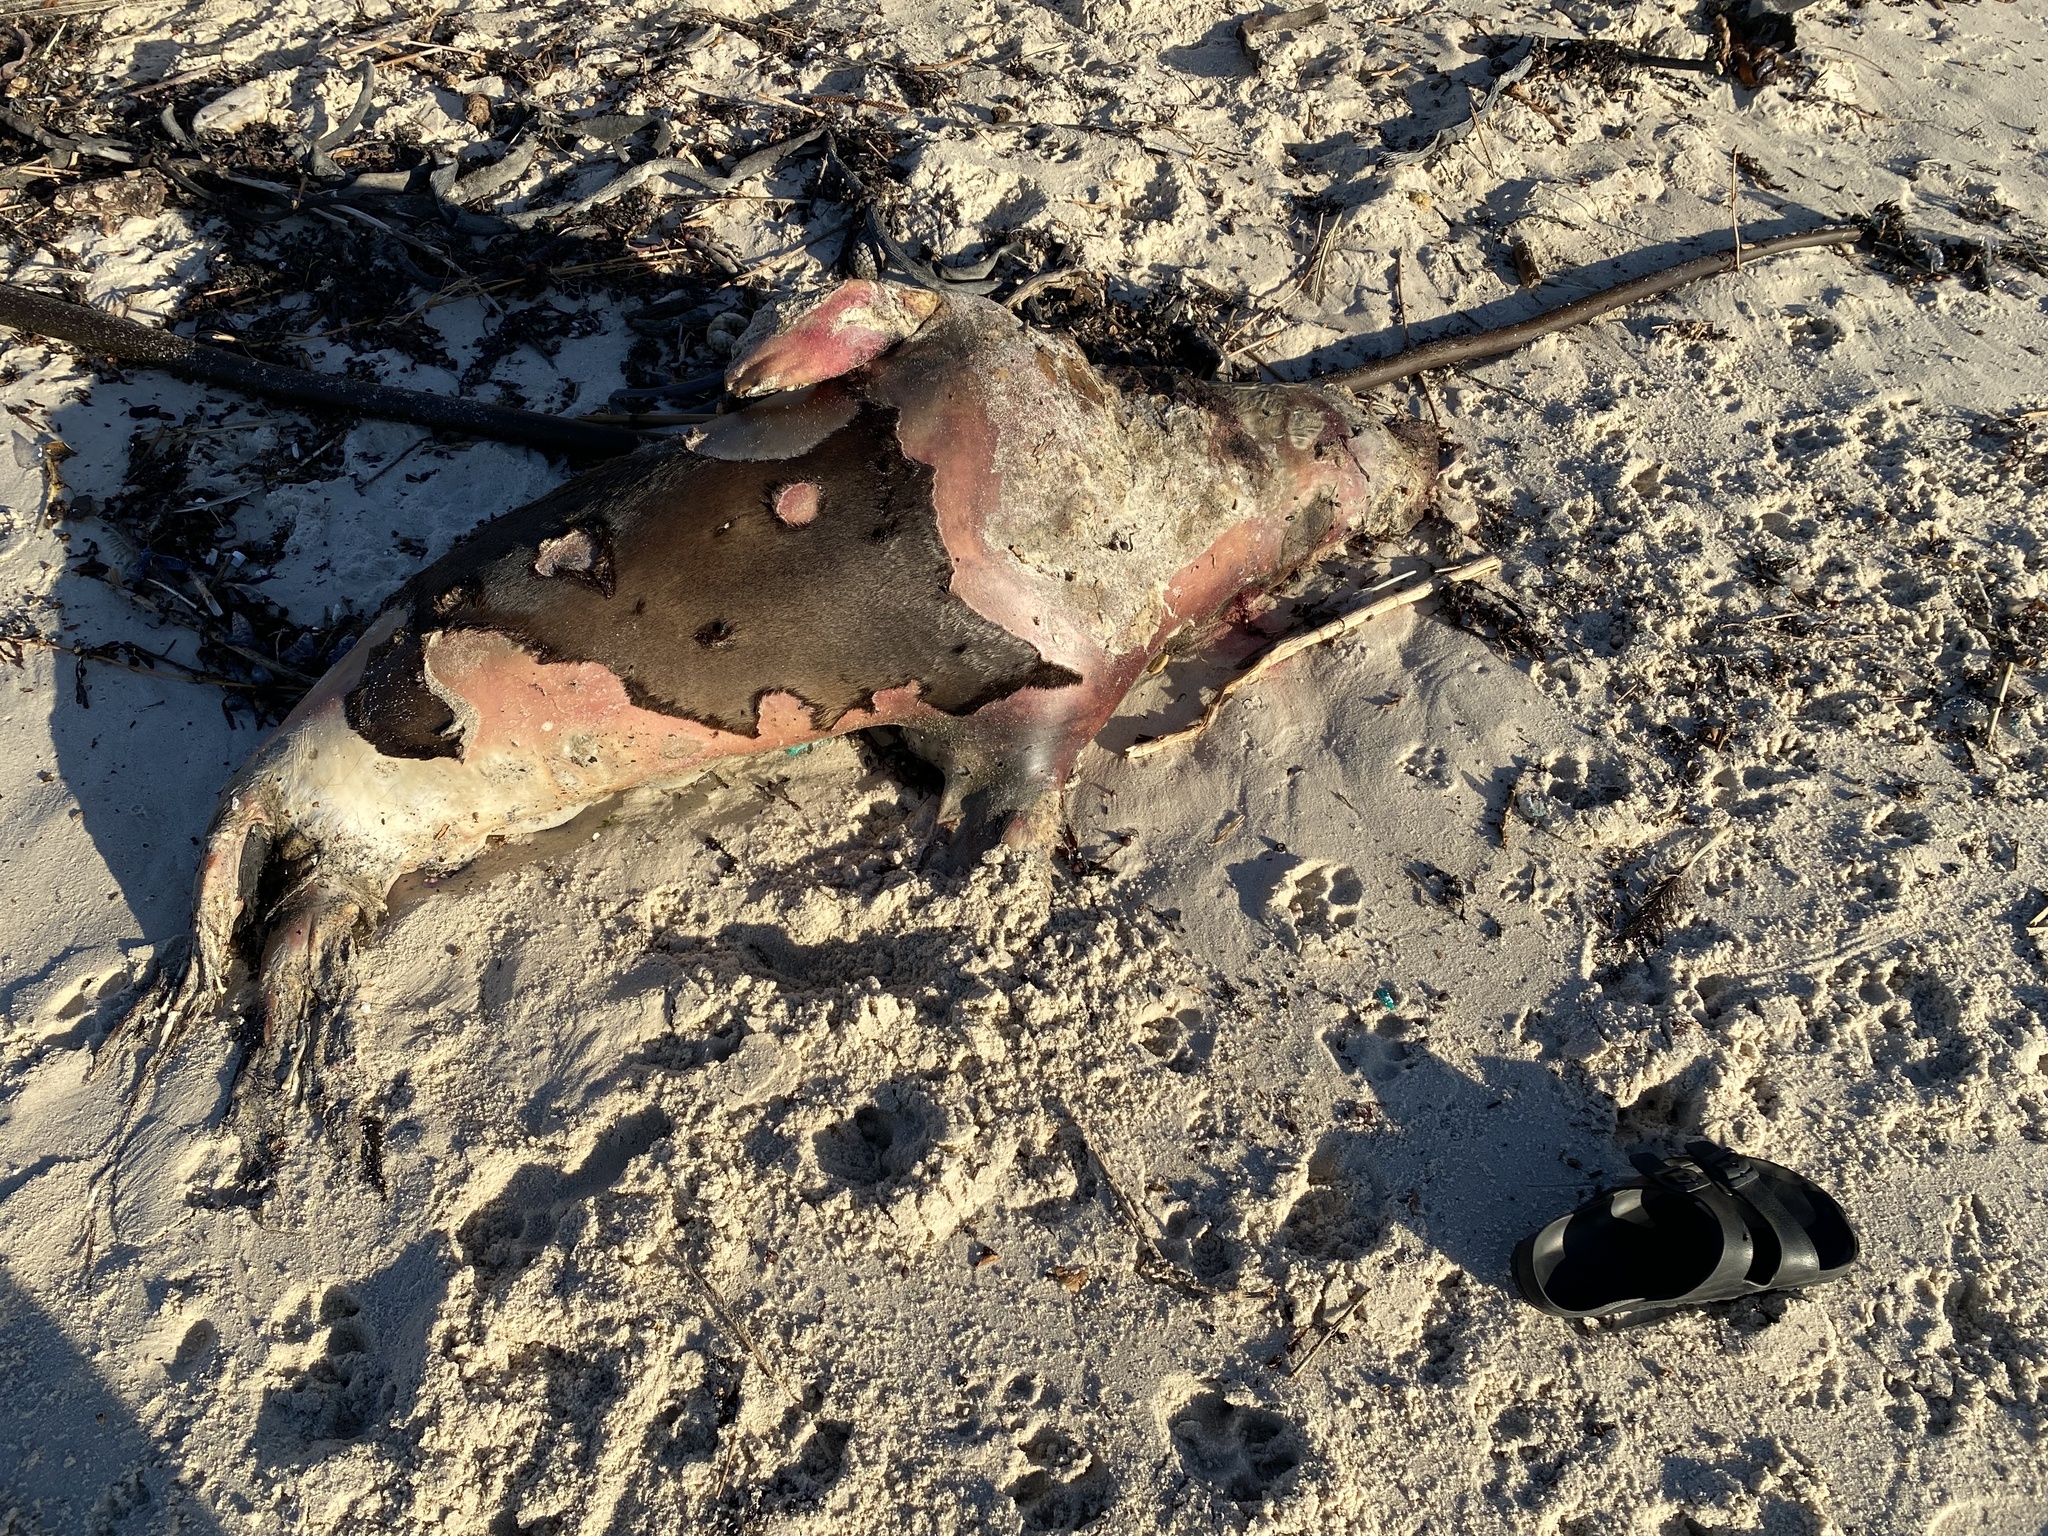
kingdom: Animalia
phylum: Chordata
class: Mammalia
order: Carnivora
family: Otariidae
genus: Arctocephalus
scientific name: Arctocephalus pusillus
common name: Brown fur seal
